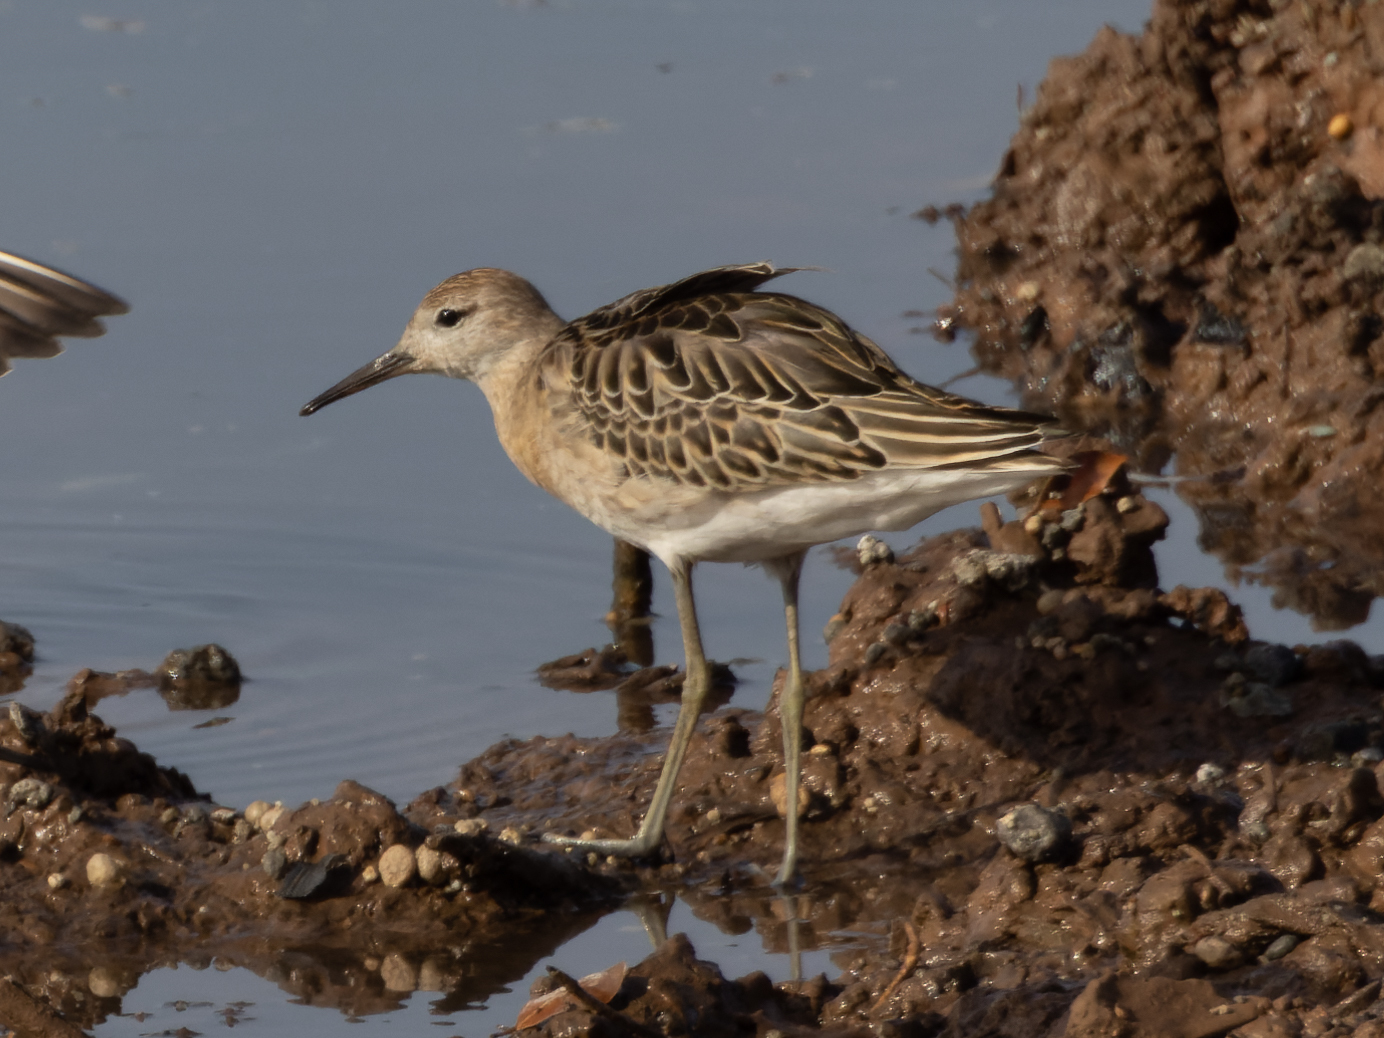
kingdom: Animalia
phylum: Chordata
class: Aves
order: Charadriiformes
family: Scolopacidae
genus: Calidris
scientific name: Calidris pugnax
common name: Ruff
